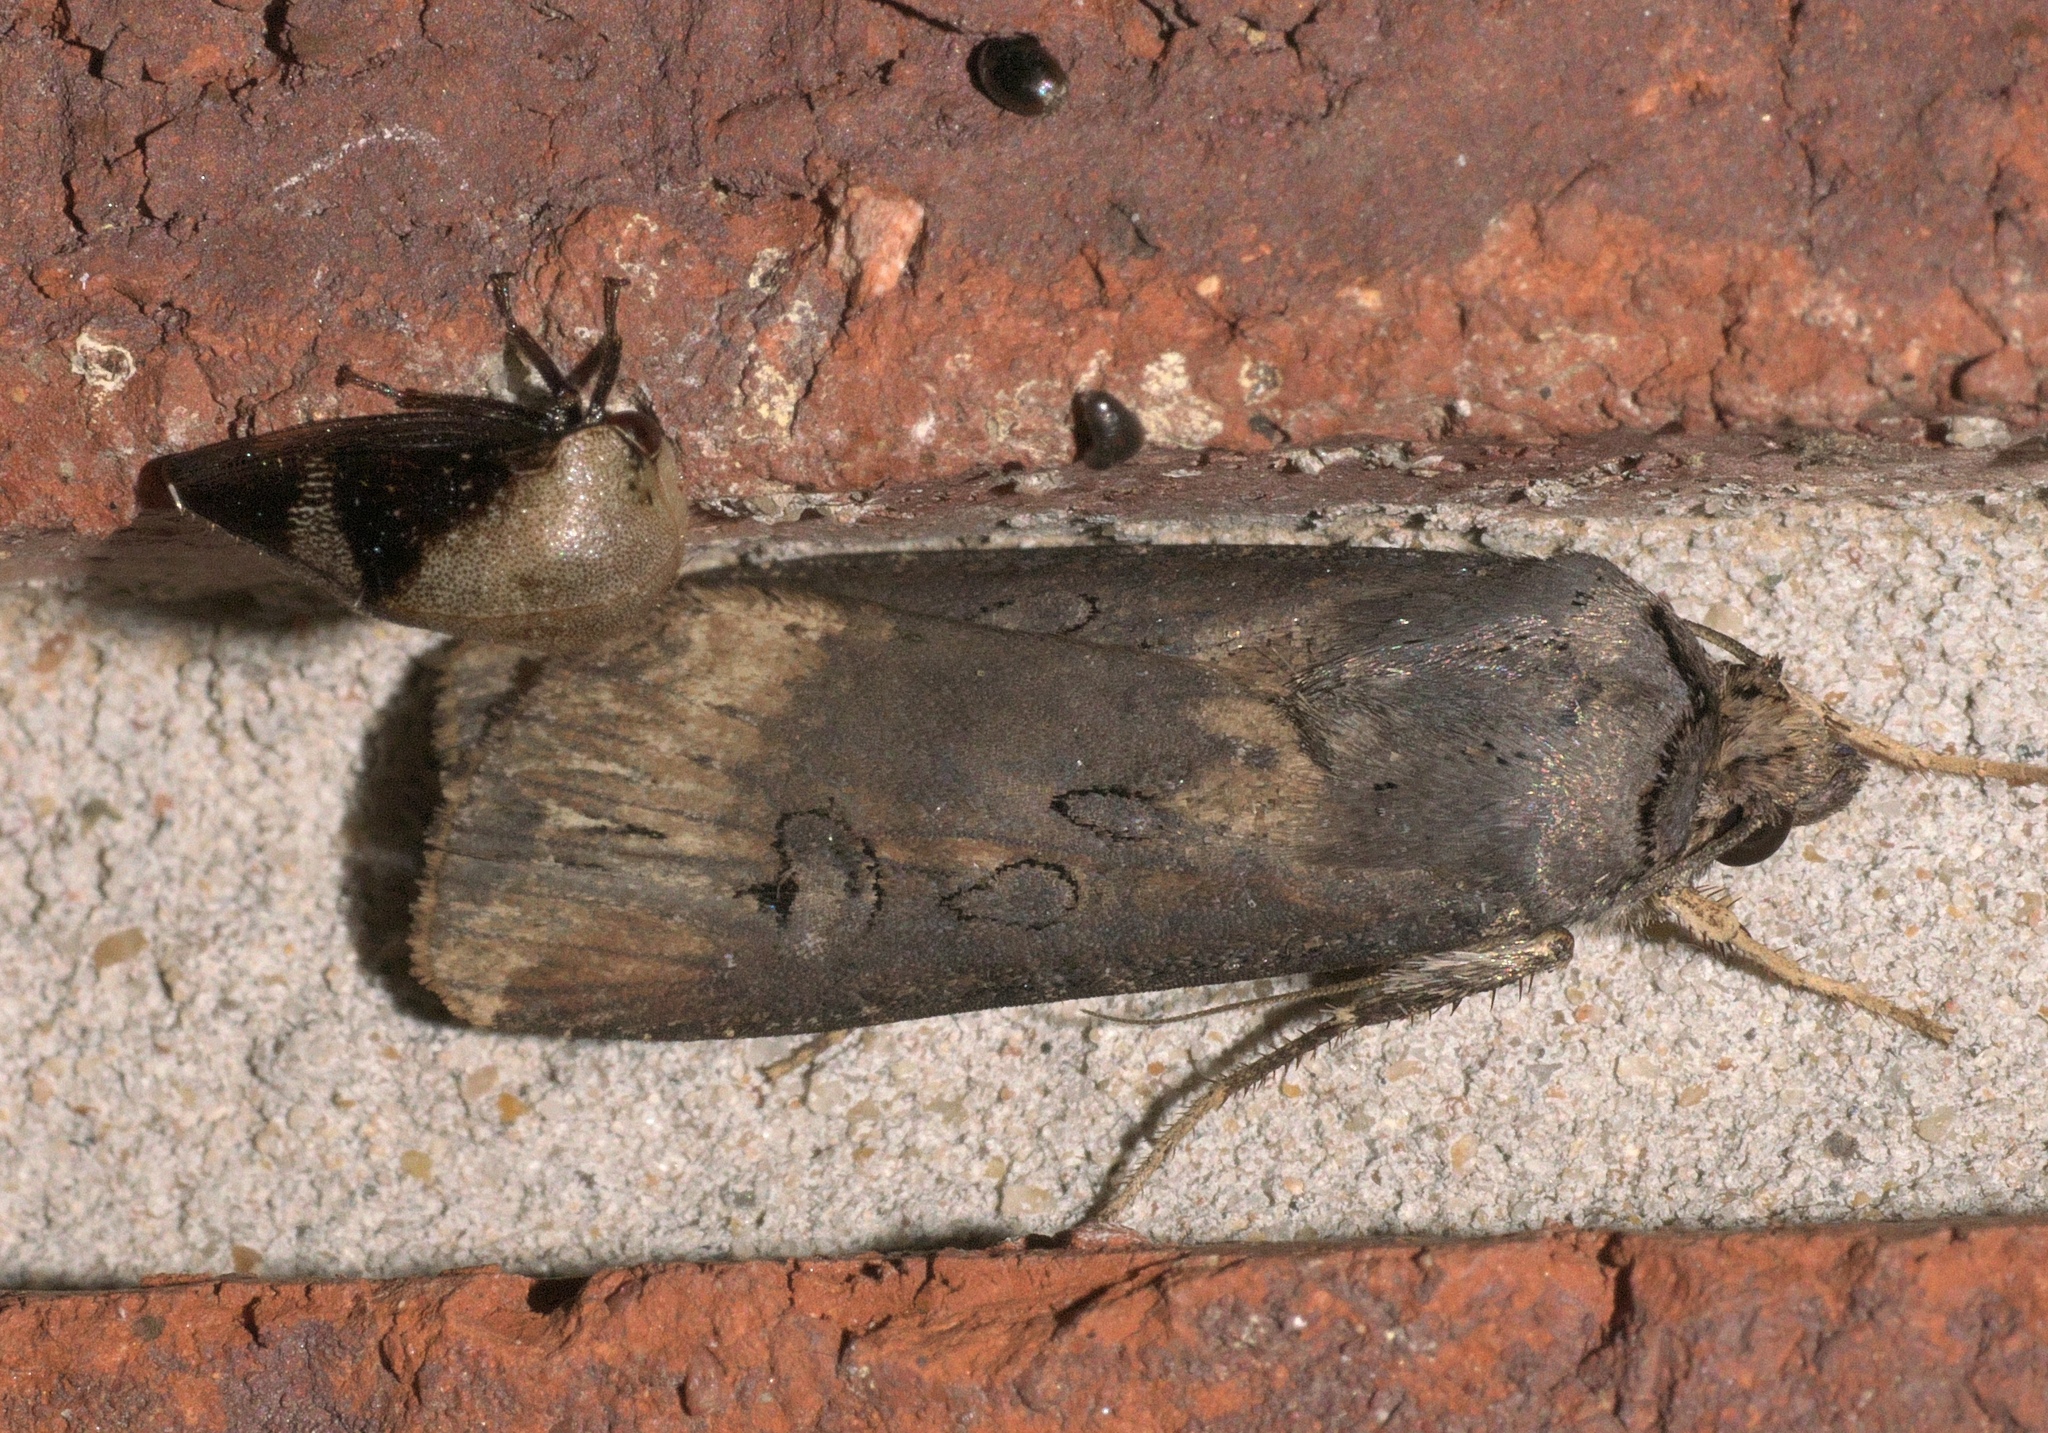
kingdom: Animalia
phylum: Arthropoda
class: Insecta
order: Lepidoptera
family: Noctuidae
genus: Agrotis
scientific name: Agrotis ipsilon
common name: Dark sword-grass
